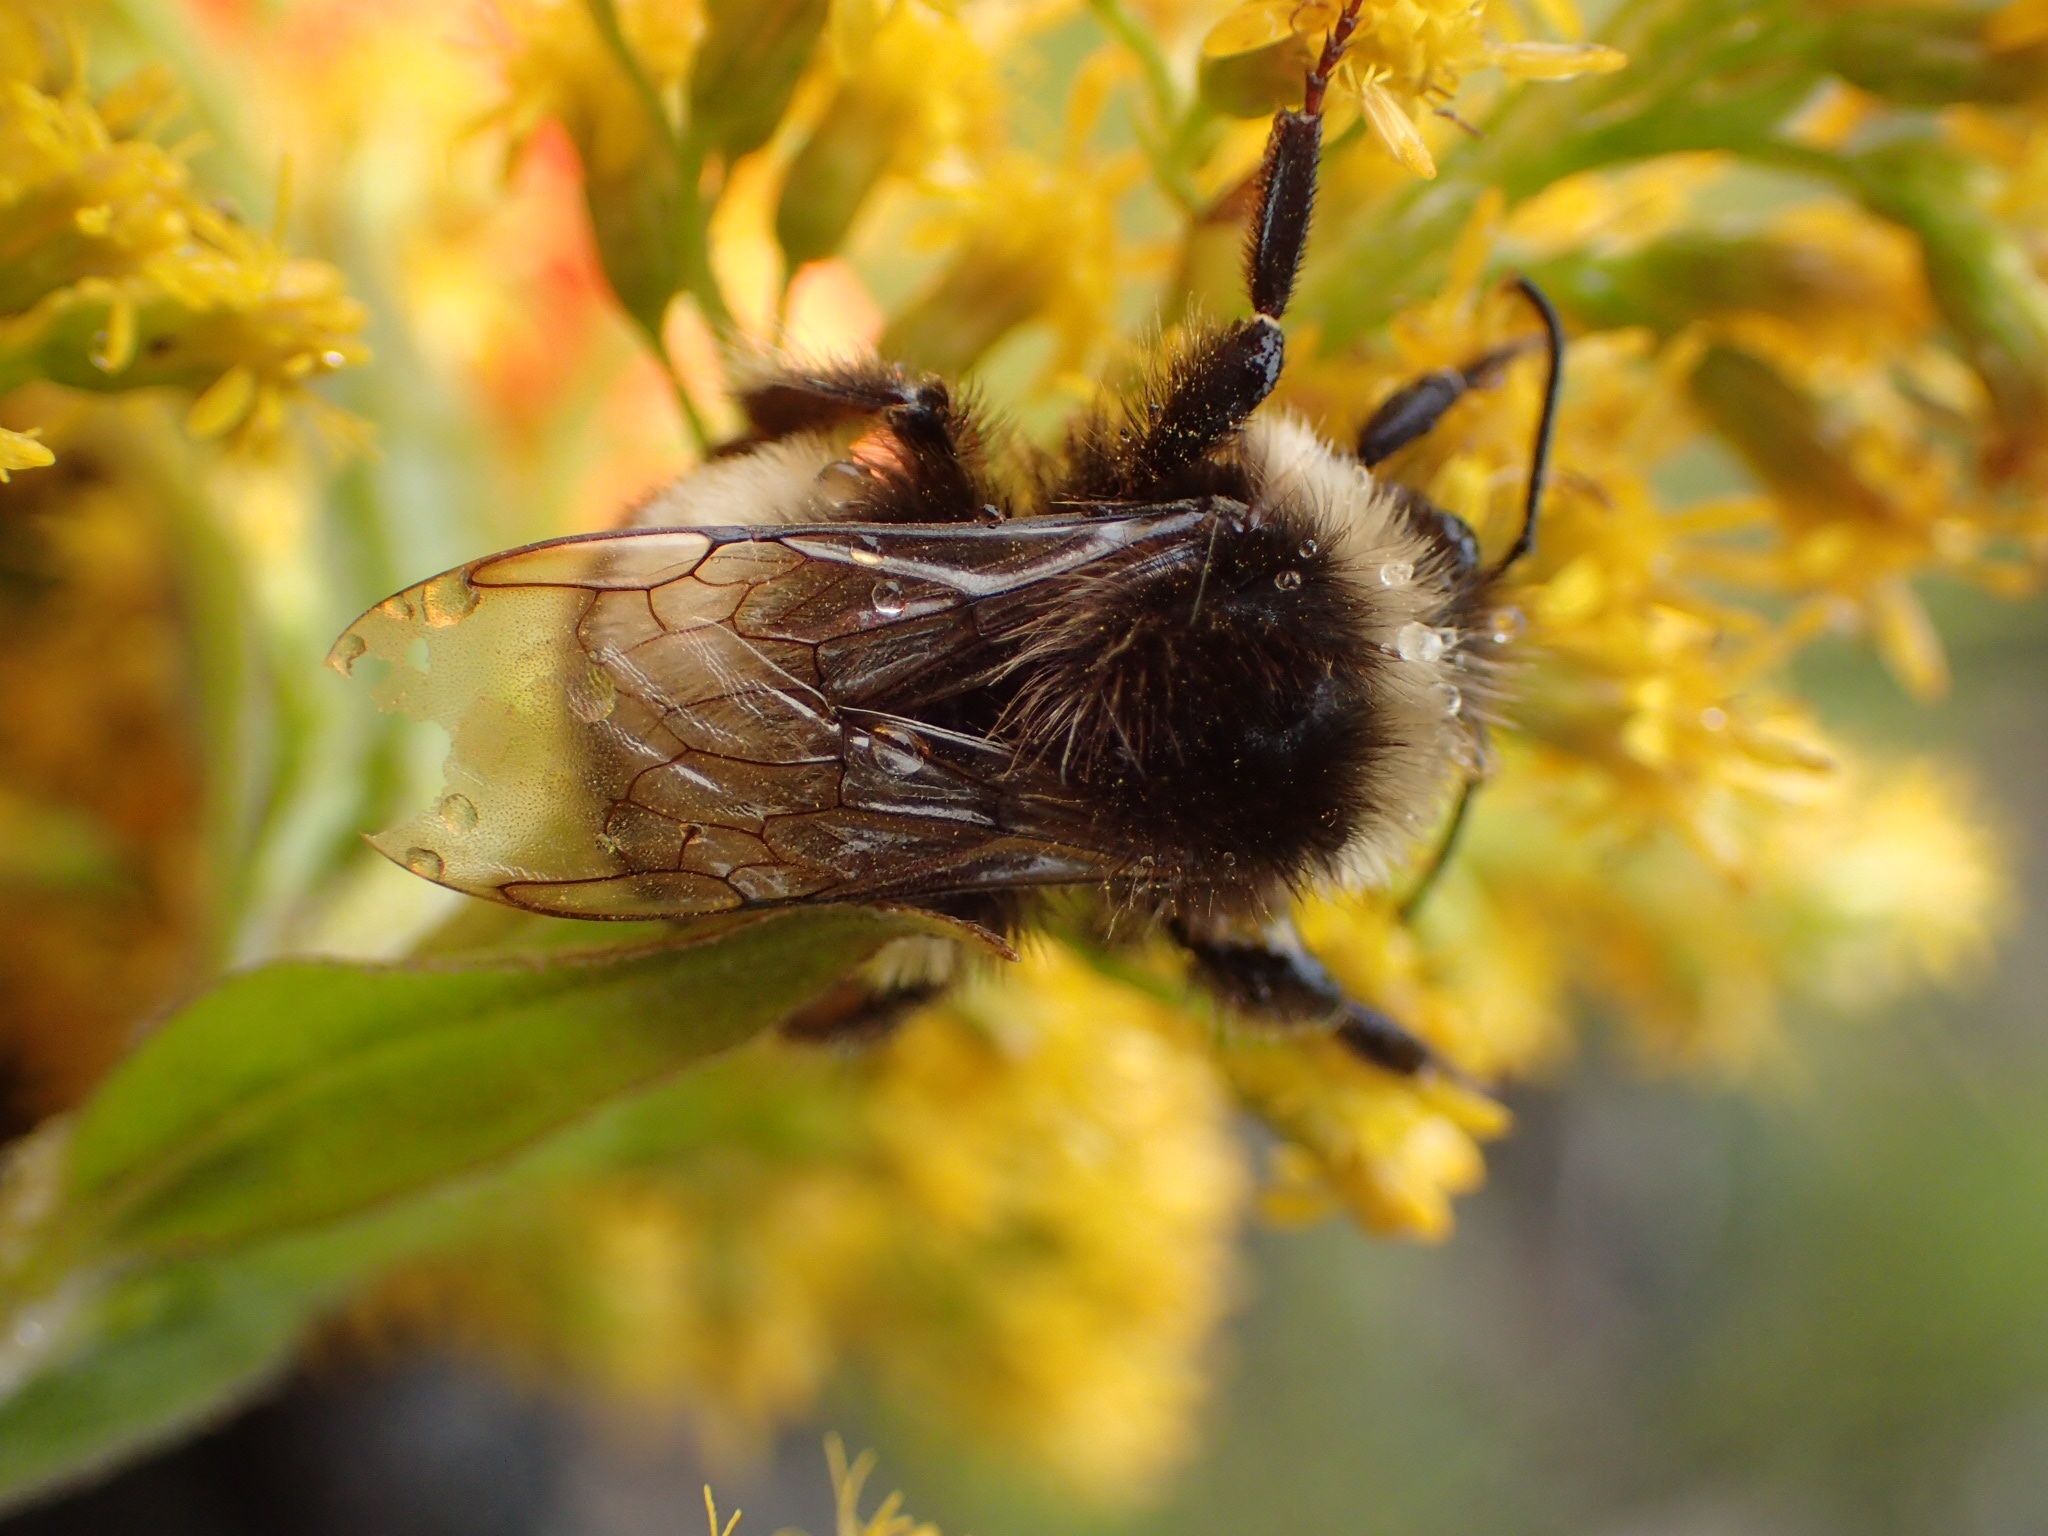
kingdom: Animalia
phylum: Arthropoda
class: Insecta
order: Hymenoptera
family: Apidae
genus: Bombus
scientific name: Bombus terricola
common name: Yellow-banded bumble bee
